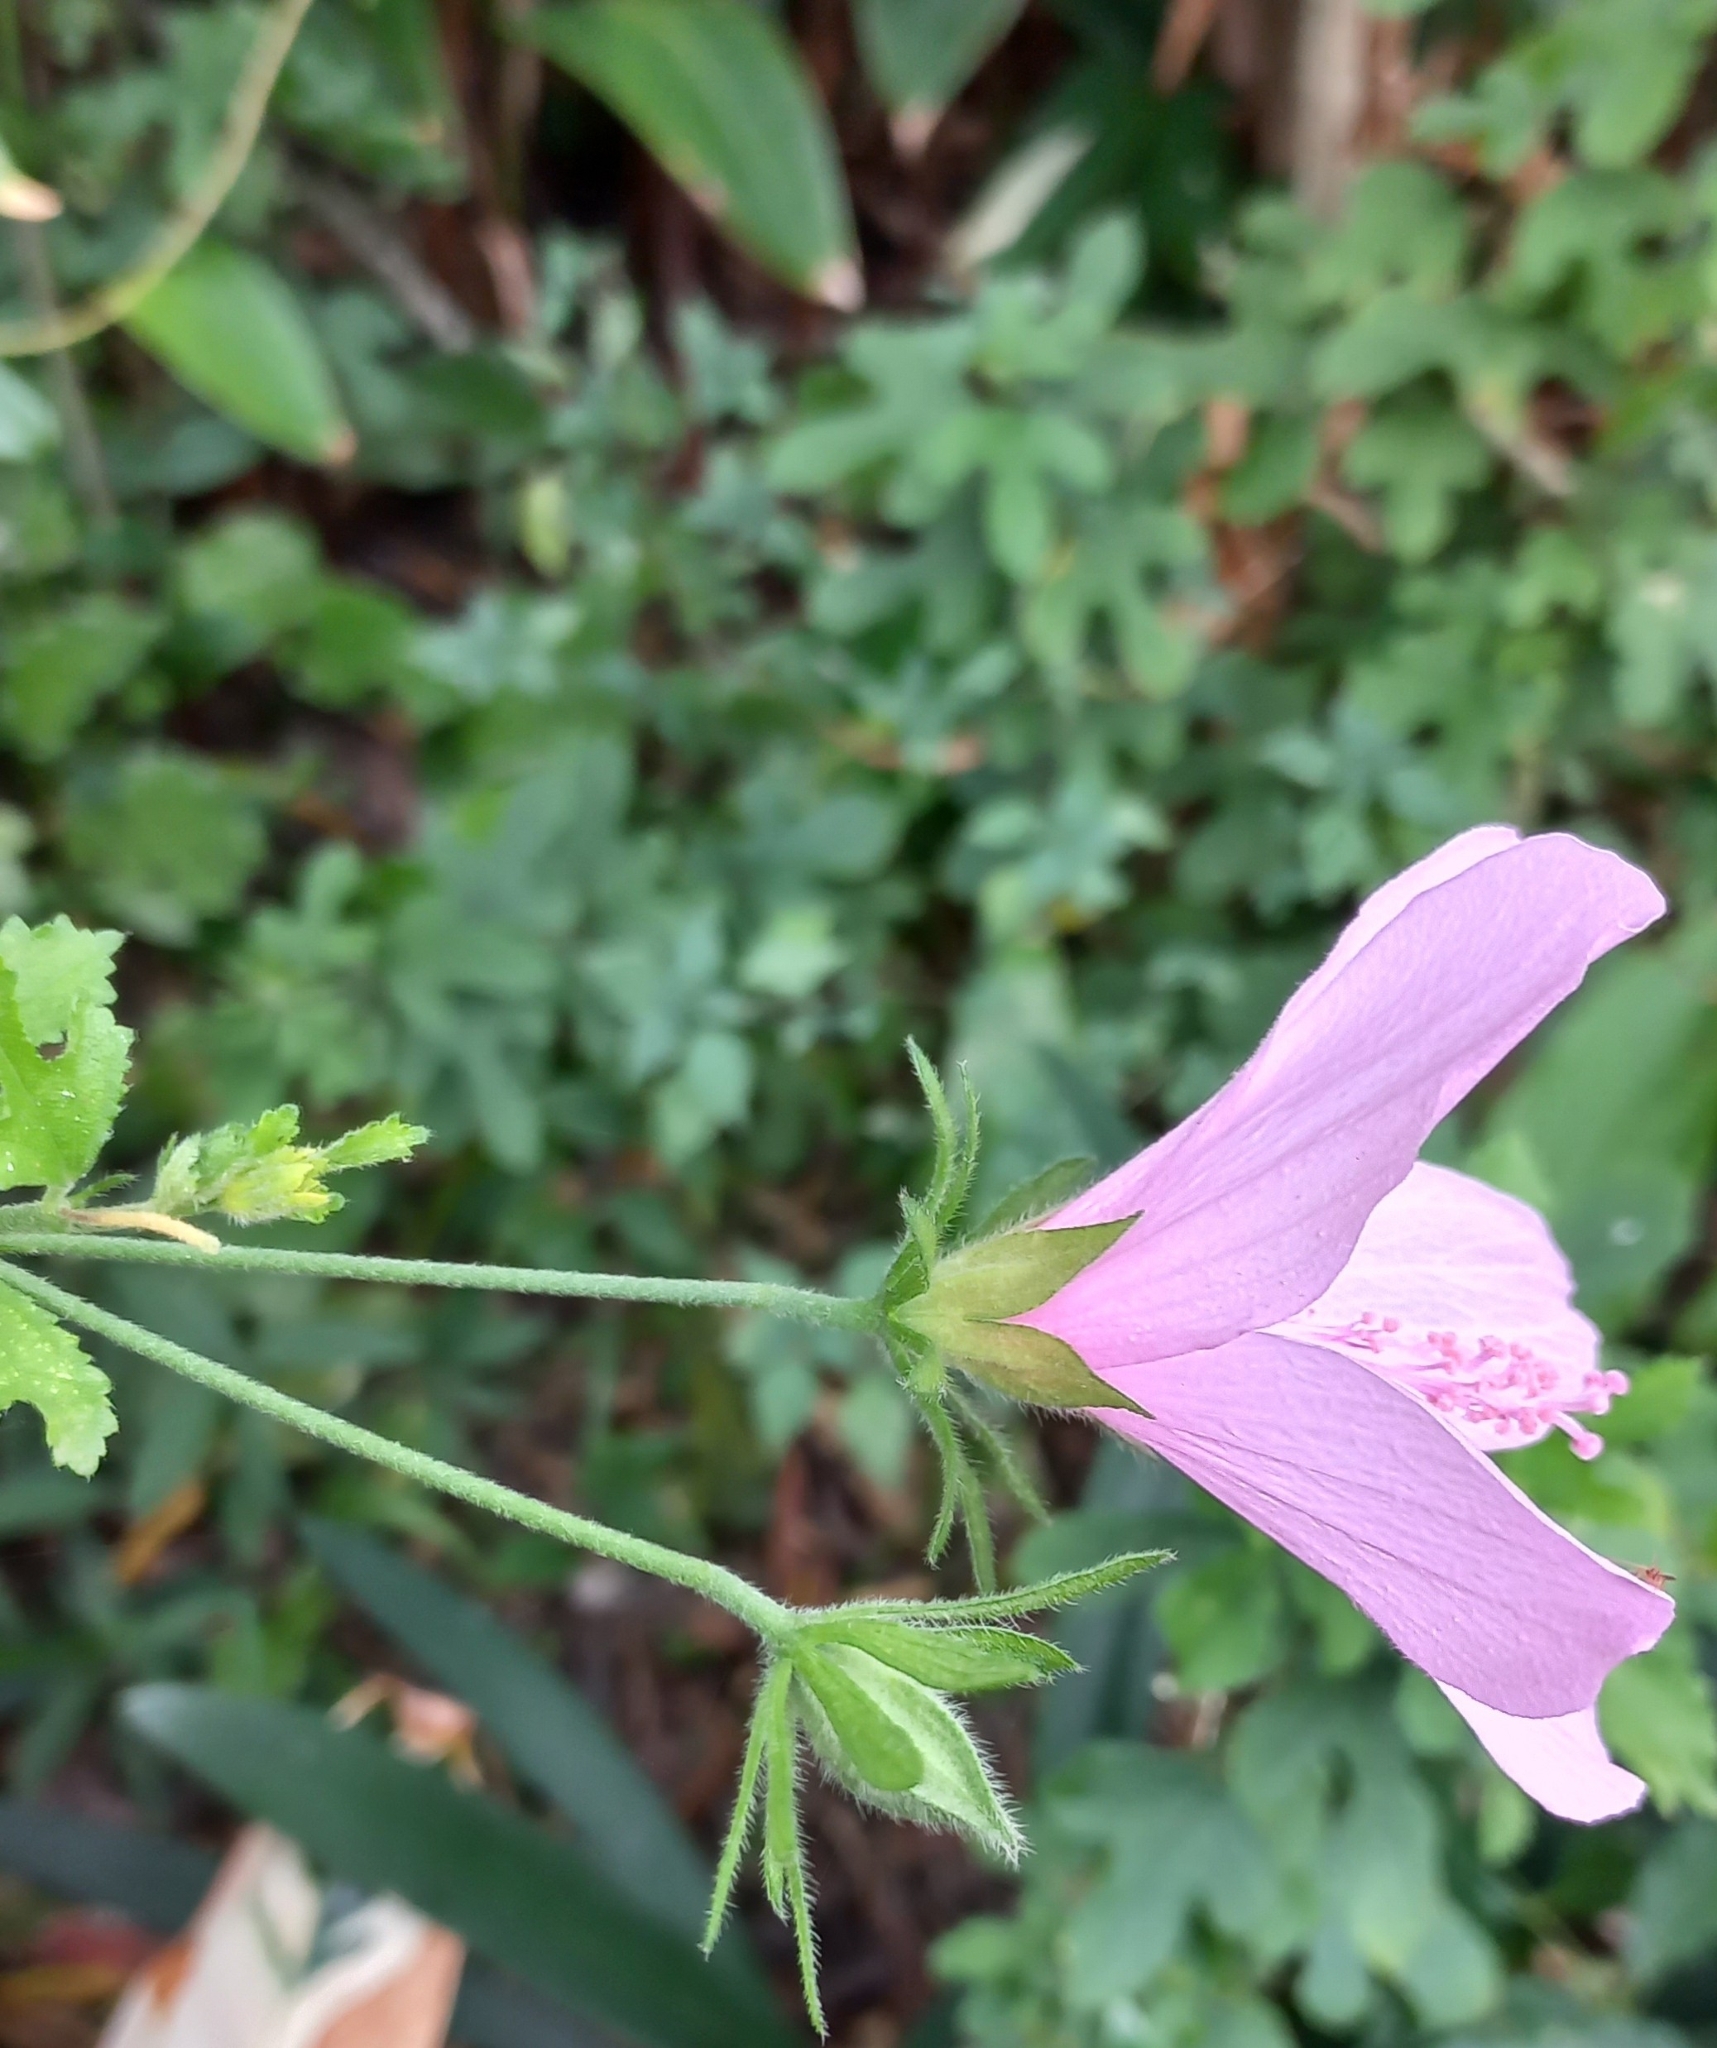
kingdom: Plantae
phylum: Tracheophyta
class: Magnoliopsida
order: Malvales
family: Malvaceae
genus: Hibiscus
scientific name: Hibiscus pedunculatus
